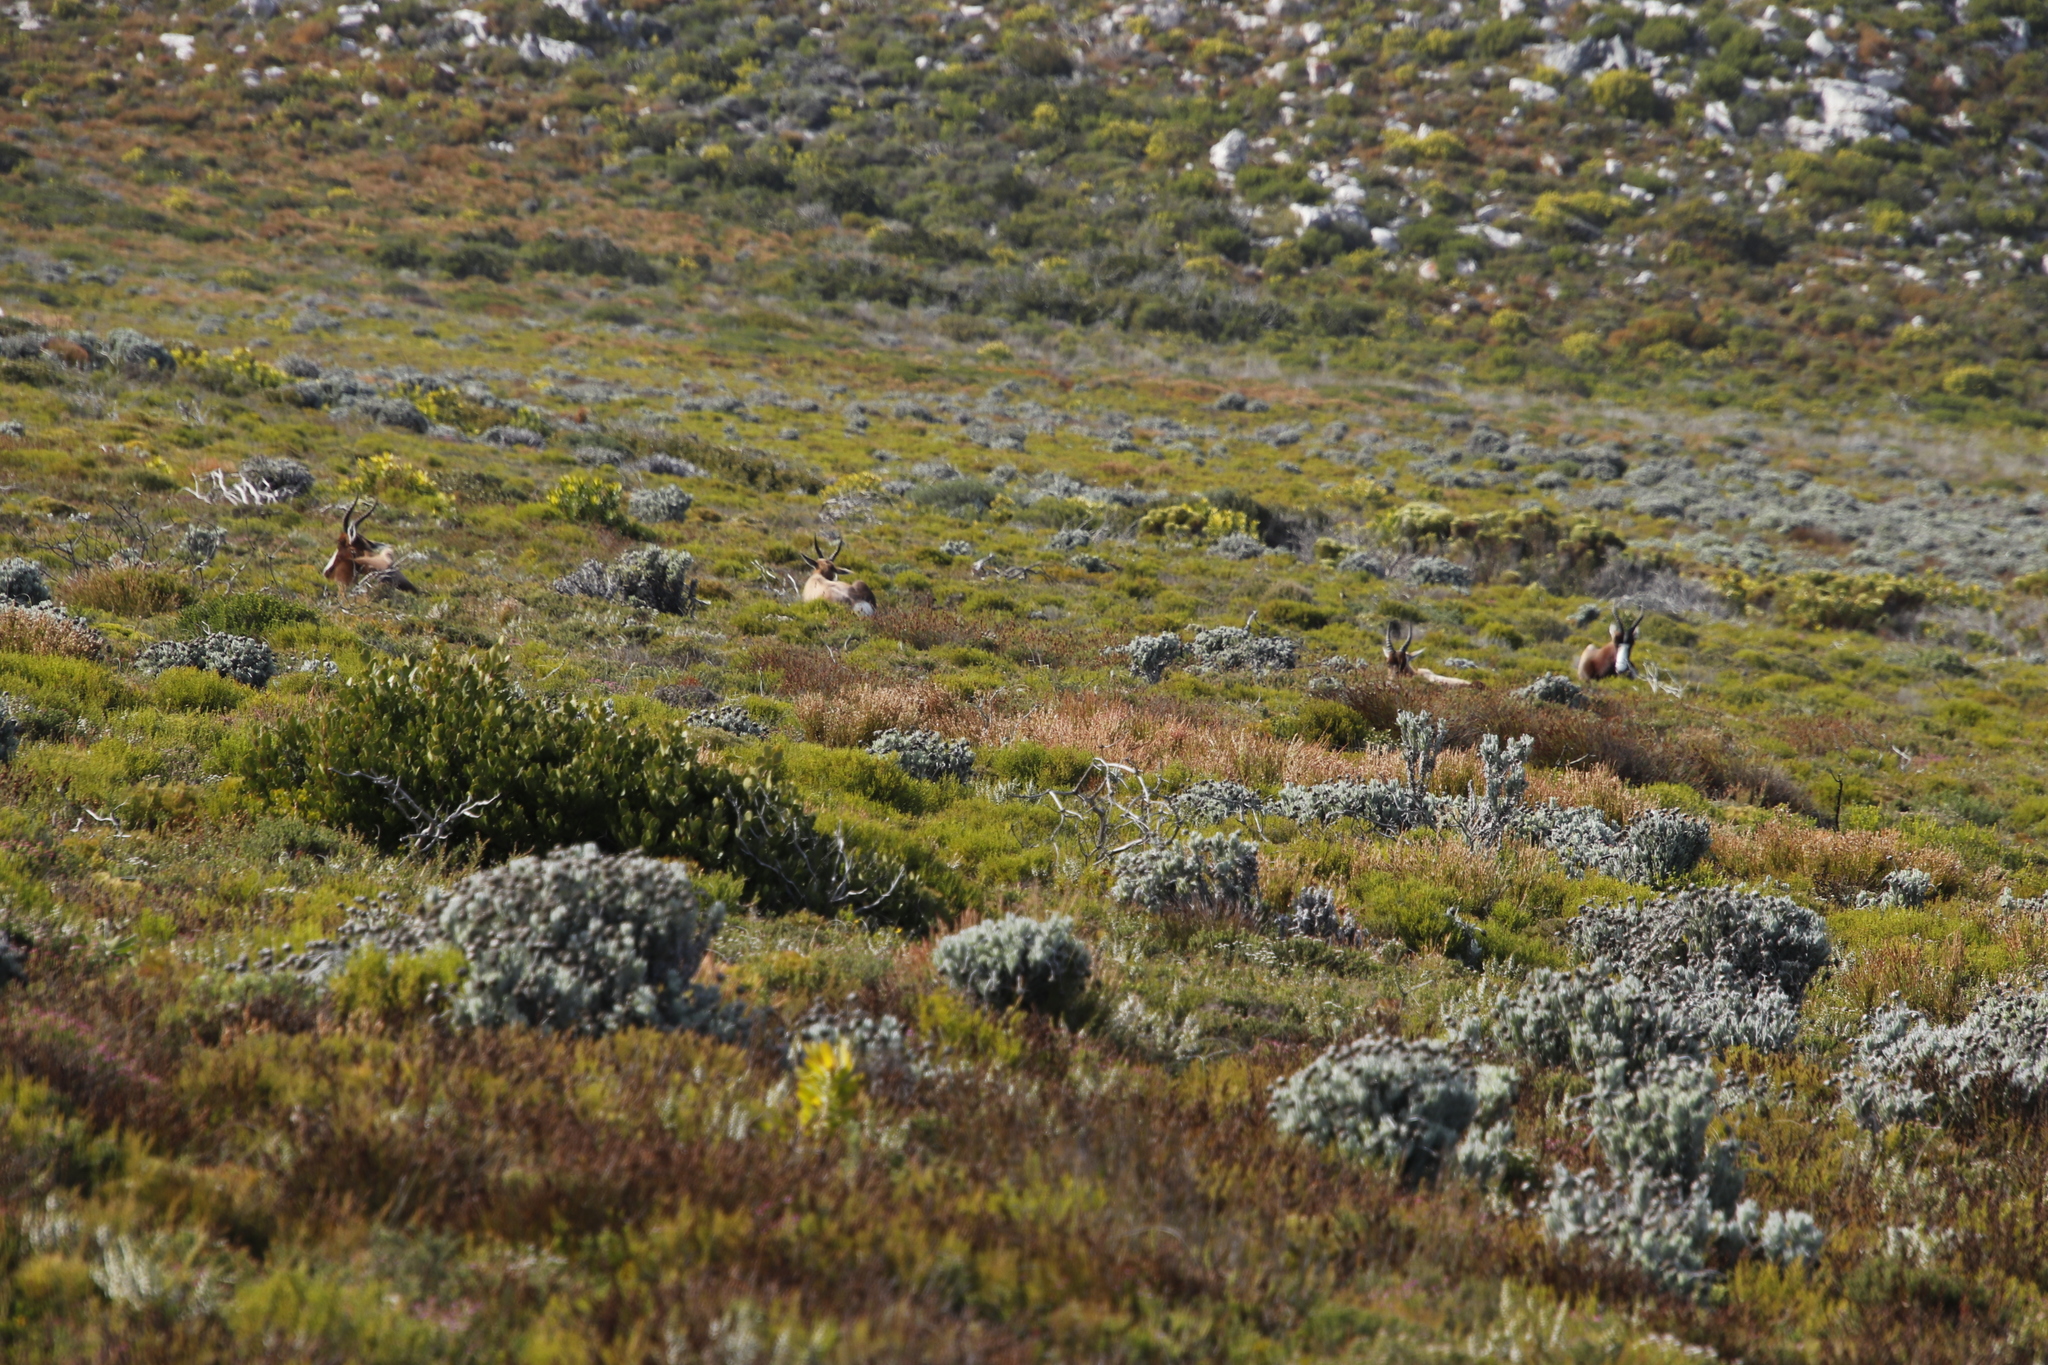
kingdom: Animalia
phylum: Chordata
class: Mammalia
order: Artiodactyla
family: Bovidae
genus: Damaliscus
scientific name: Damaliscus pygargus
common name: Bontebok
